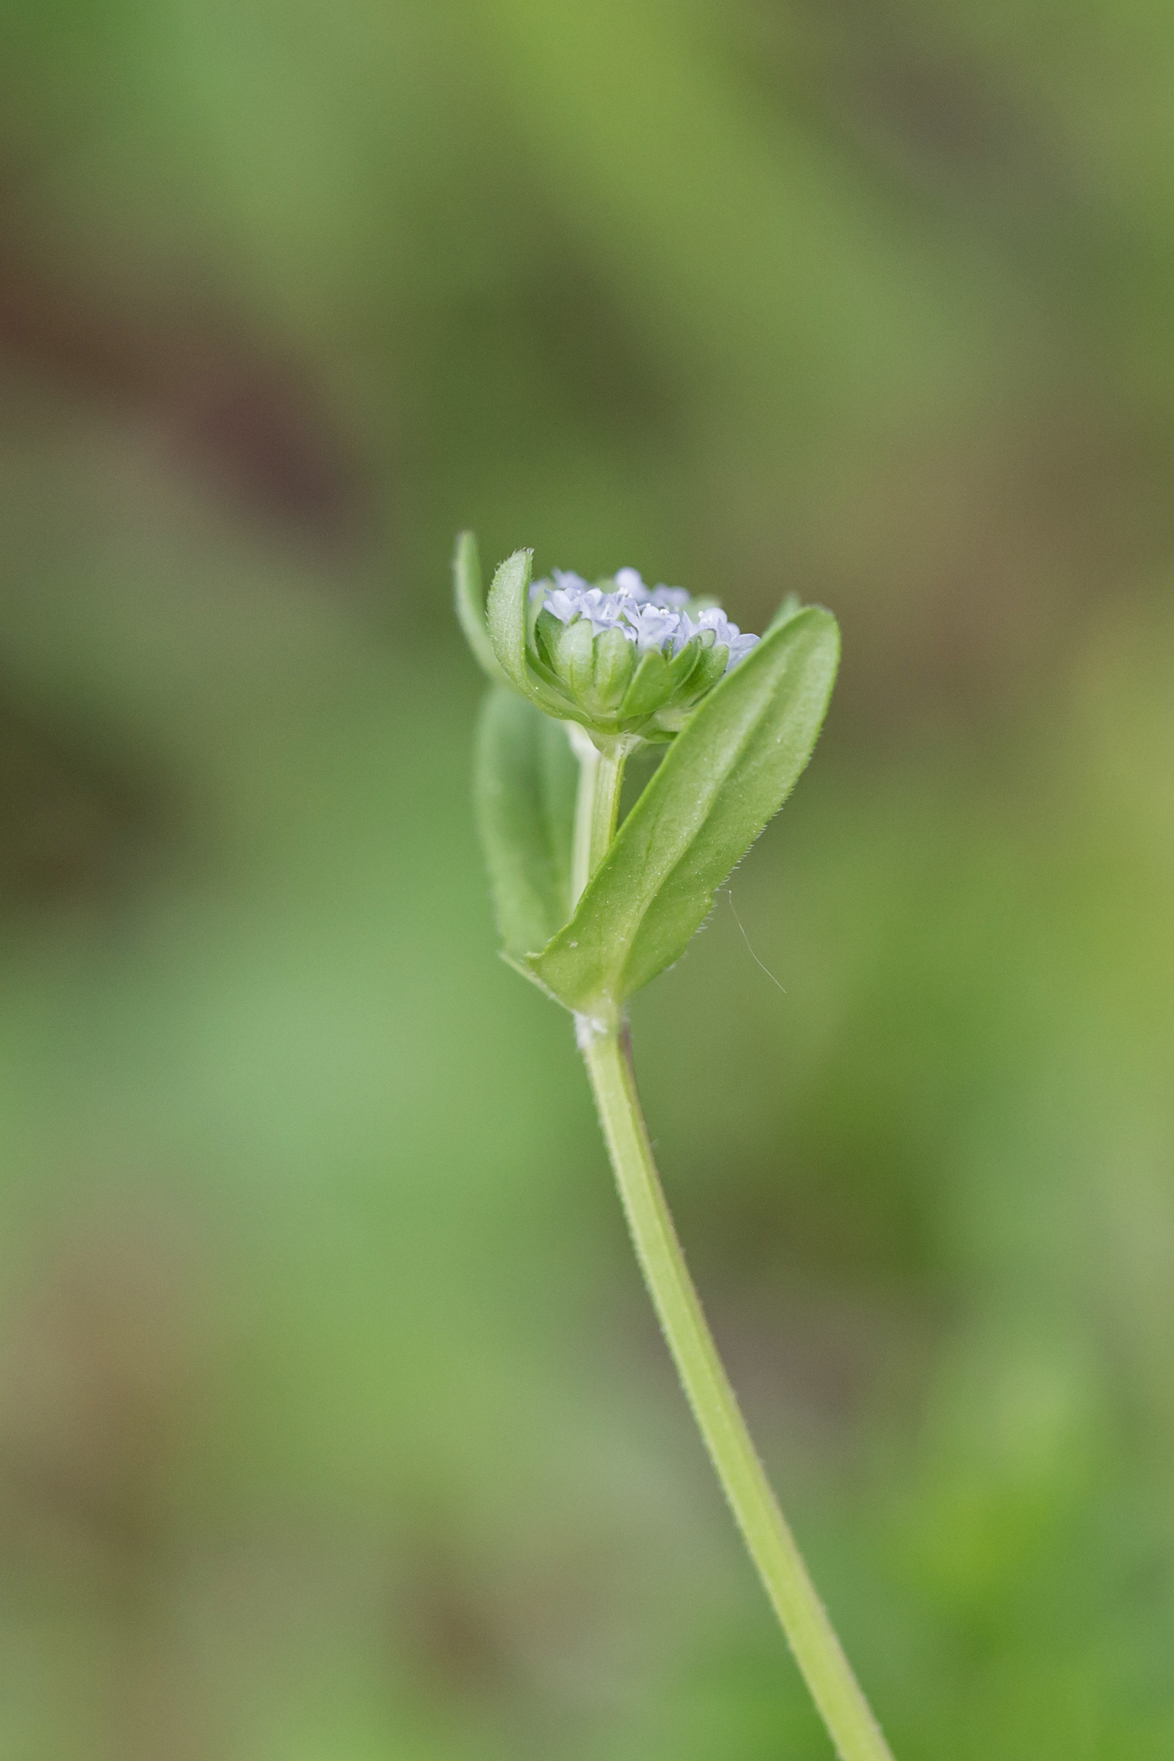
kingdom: Plantae
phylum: Tracheophyta
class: Magnoliopsida
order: Dipsacales
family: Caprifoliaceae
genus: Valerianella
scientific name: Valerianella locusta
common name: Common cornsalad
